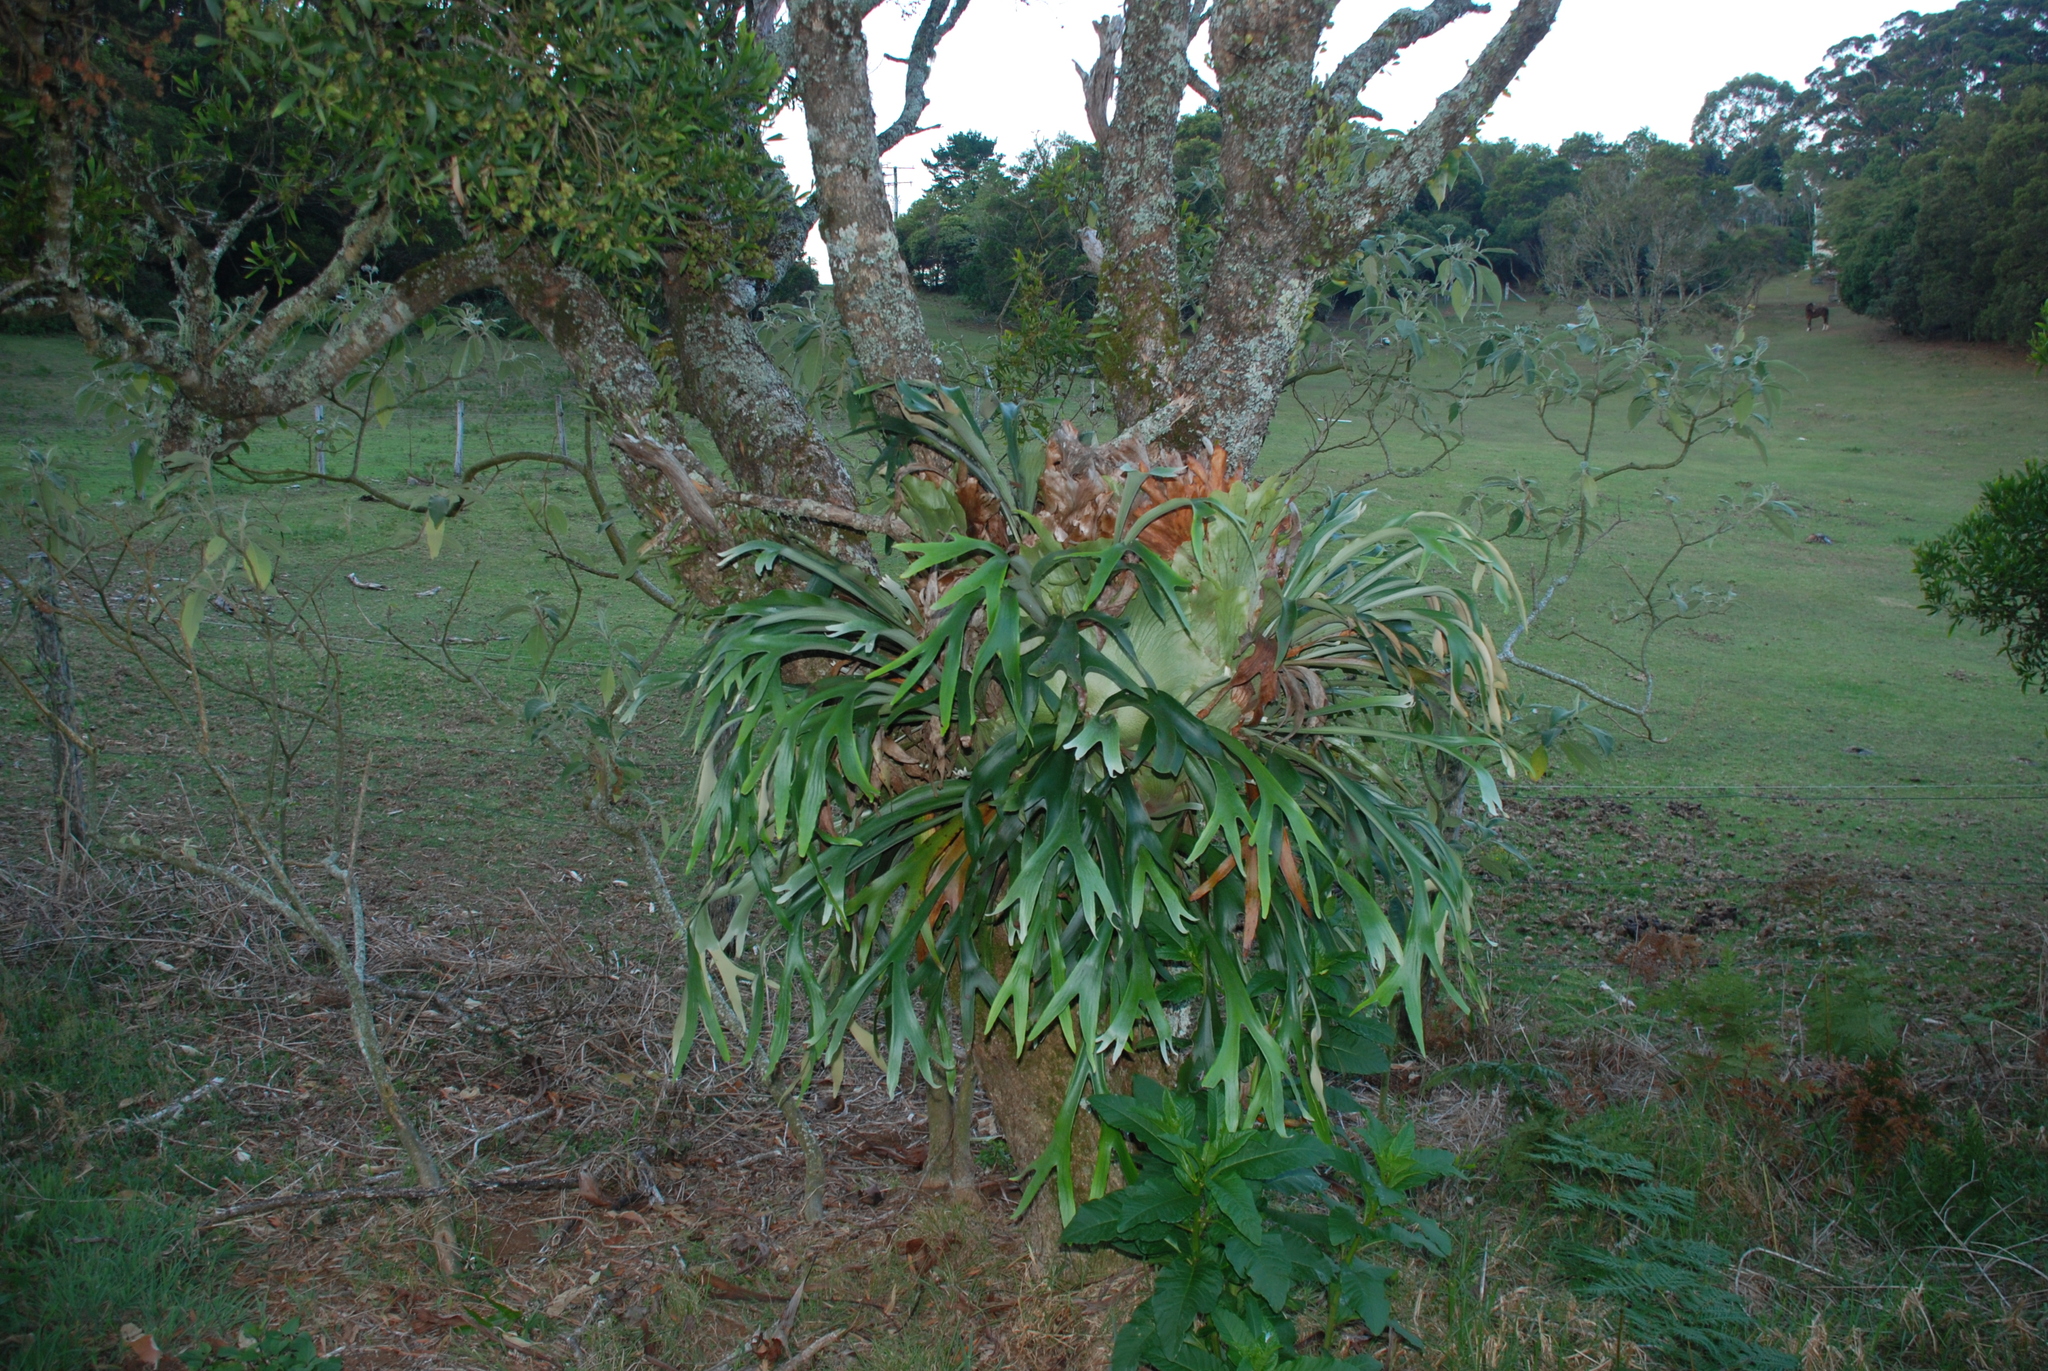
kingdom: Plantae
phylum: Tracheophyta
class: Polypodiopsida
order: Polypodiales
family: Polypodiaceae
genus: Platycerium
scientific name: Platycerium bifurcatum
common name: Elkhorn fern
